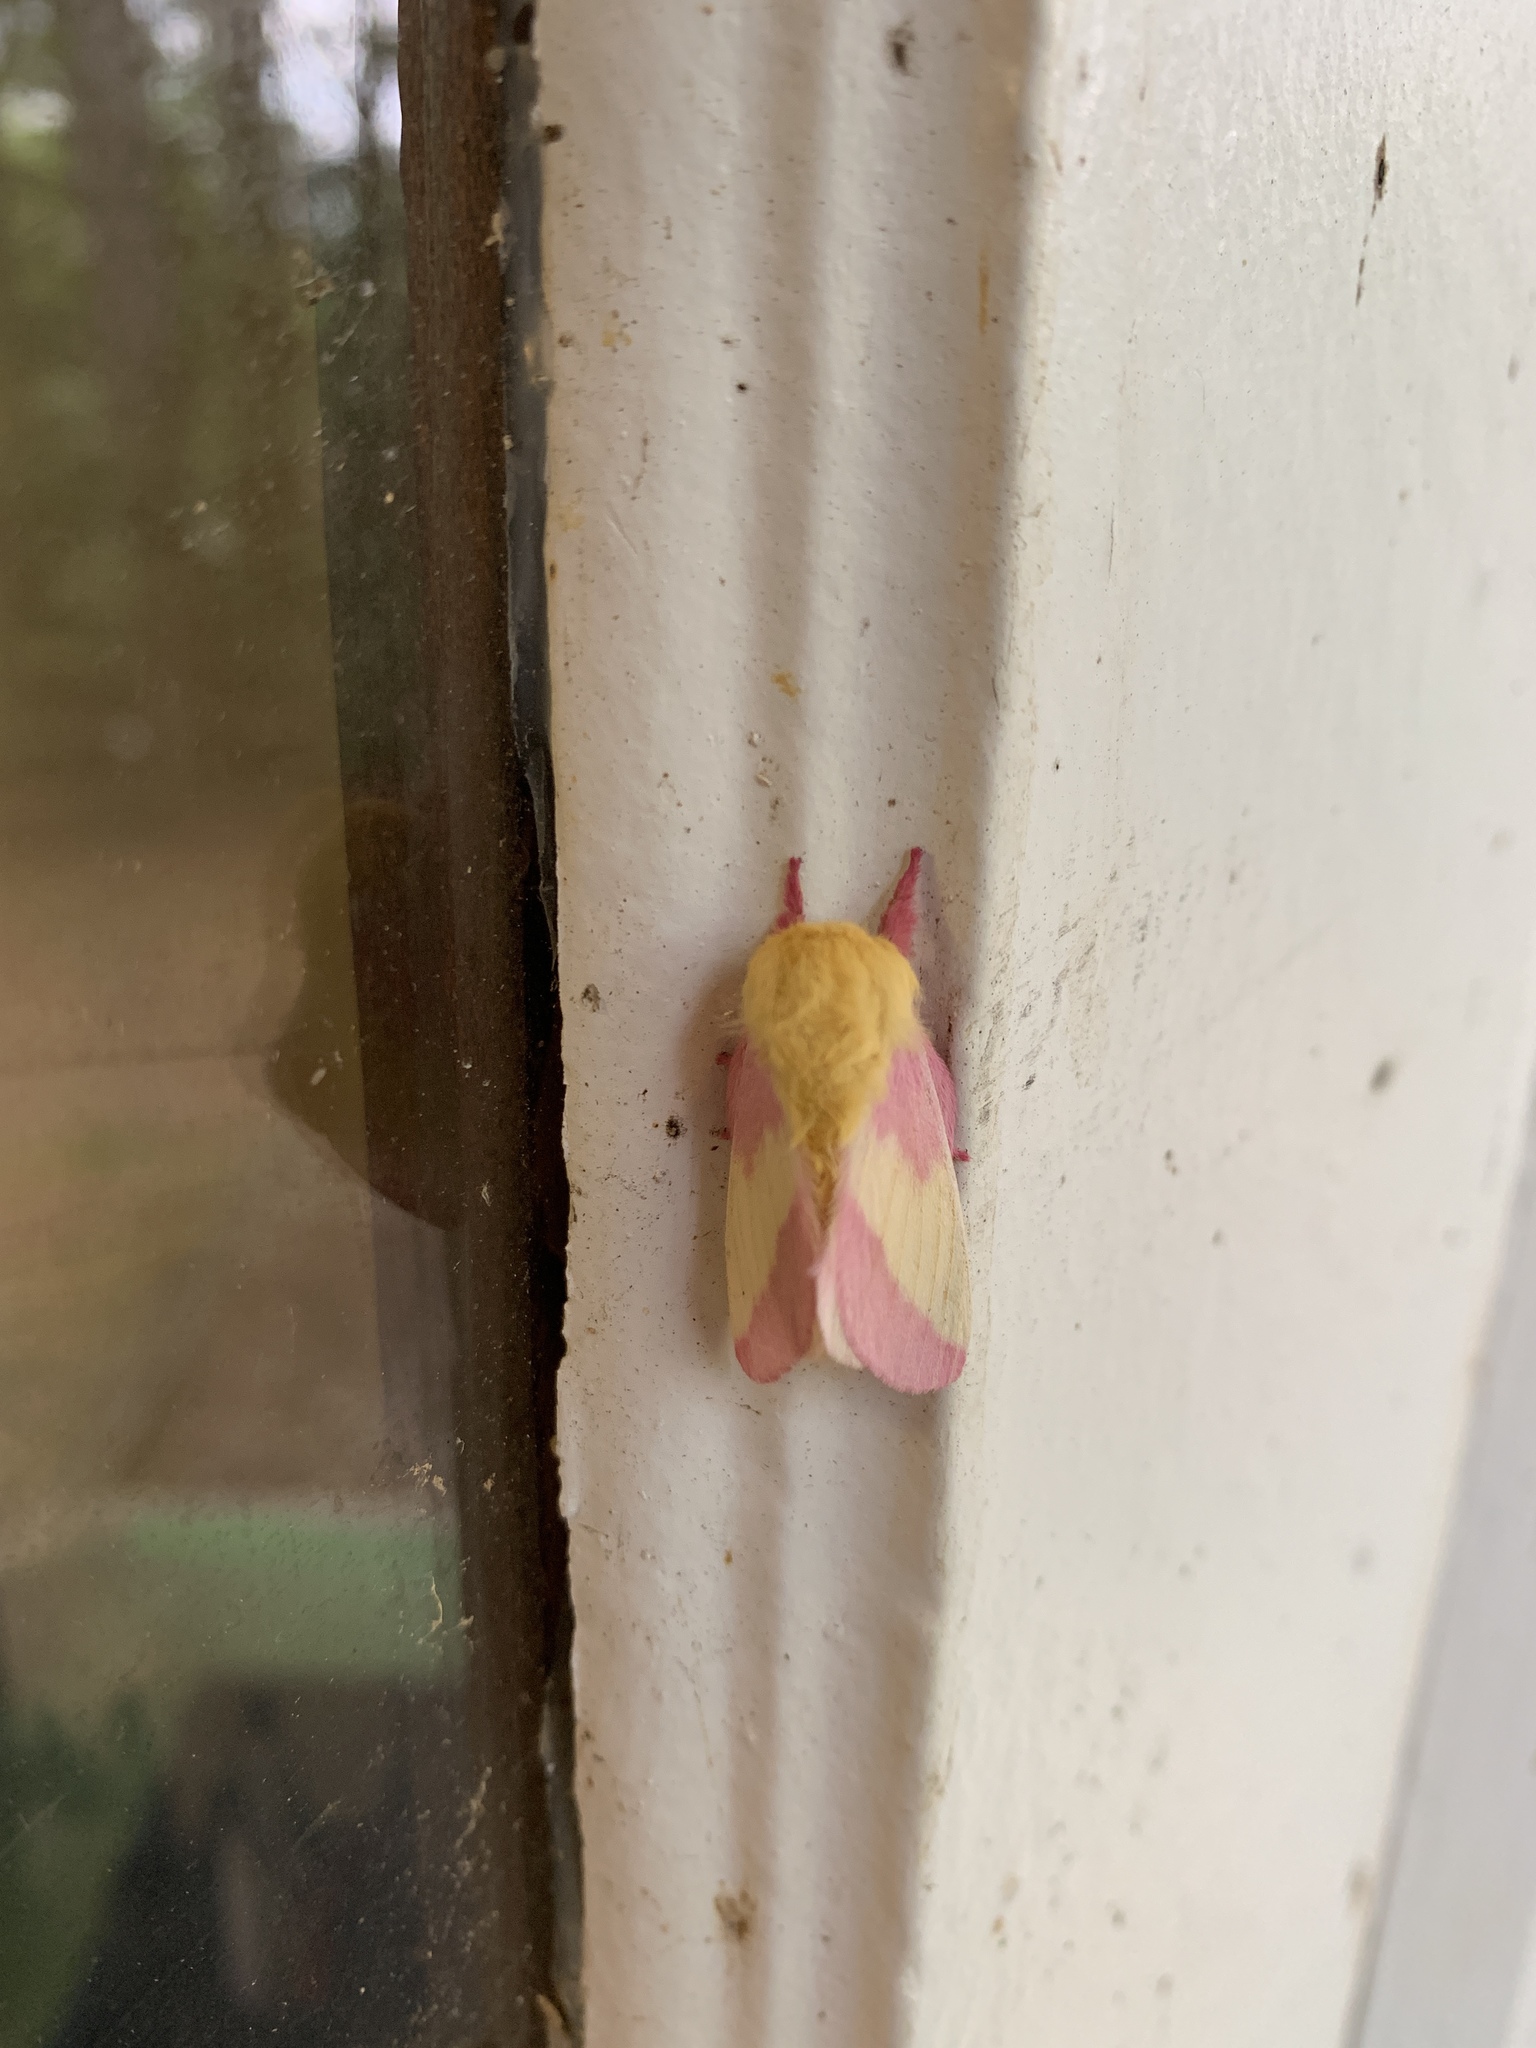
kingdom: Animalia
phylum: Arthropoda
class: Insecta
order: Lepidoptera
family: Saturniidae
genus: Dryocampa
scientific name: Dryocampa rubicunda
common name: Rosy maple moth
